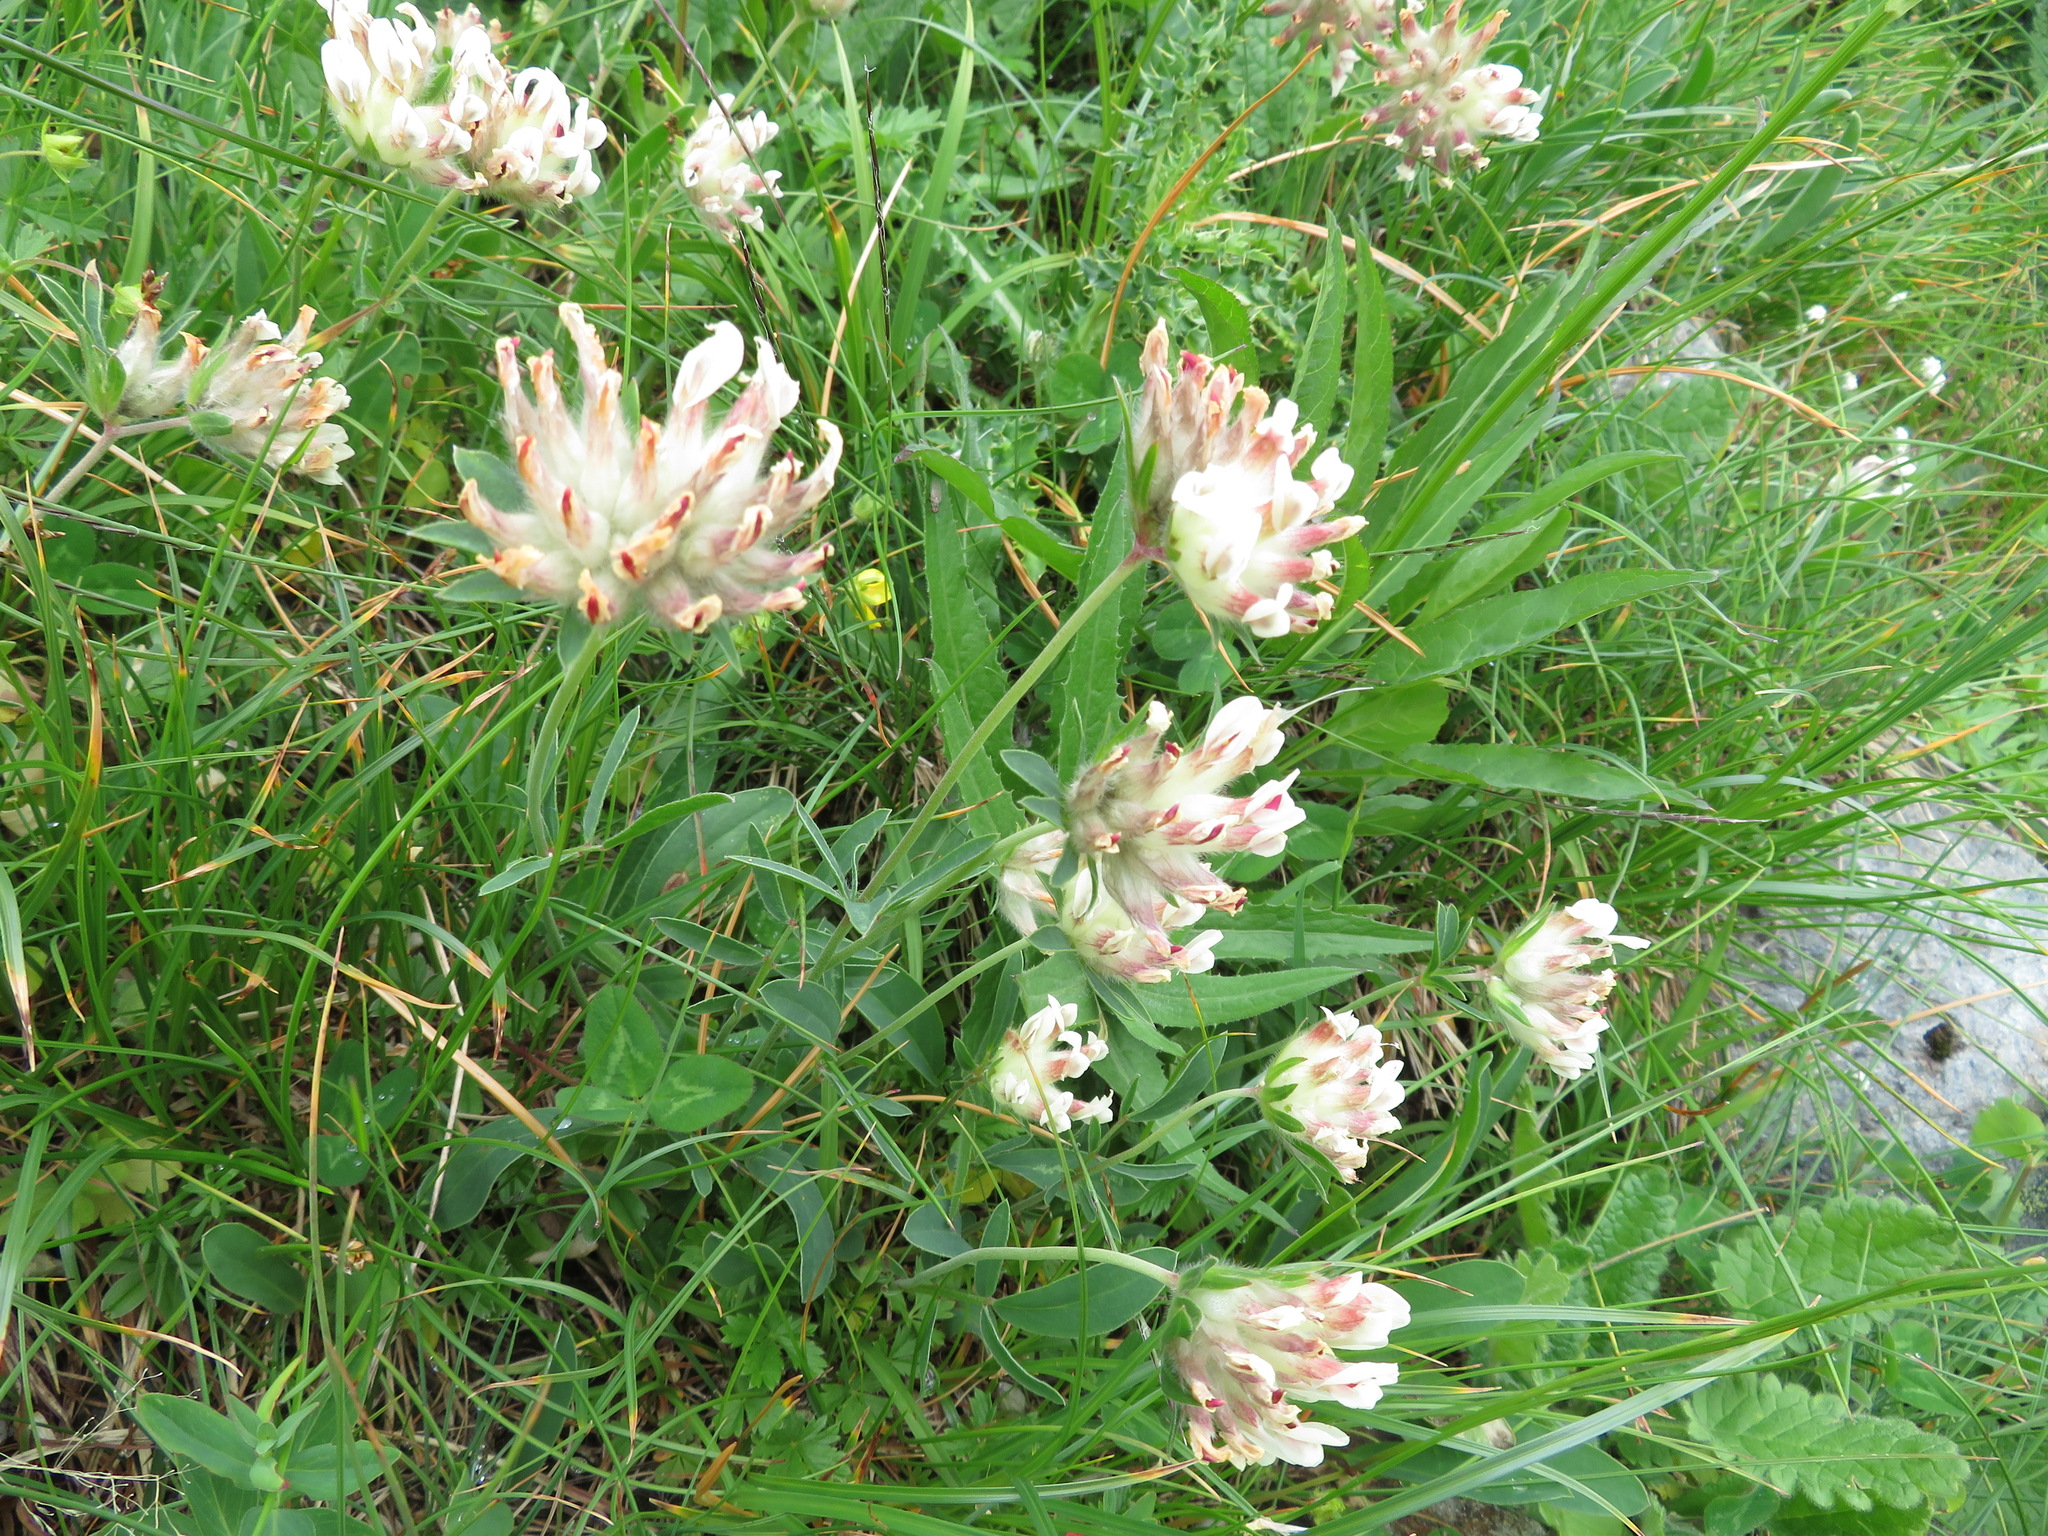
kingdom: Plantae
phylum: Tracheophyta
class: Magnoliopsida
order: Fabales
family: Fabaceae
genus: Anthyllis
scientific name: Anthyllis vulneraria
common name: Kidney vetch
